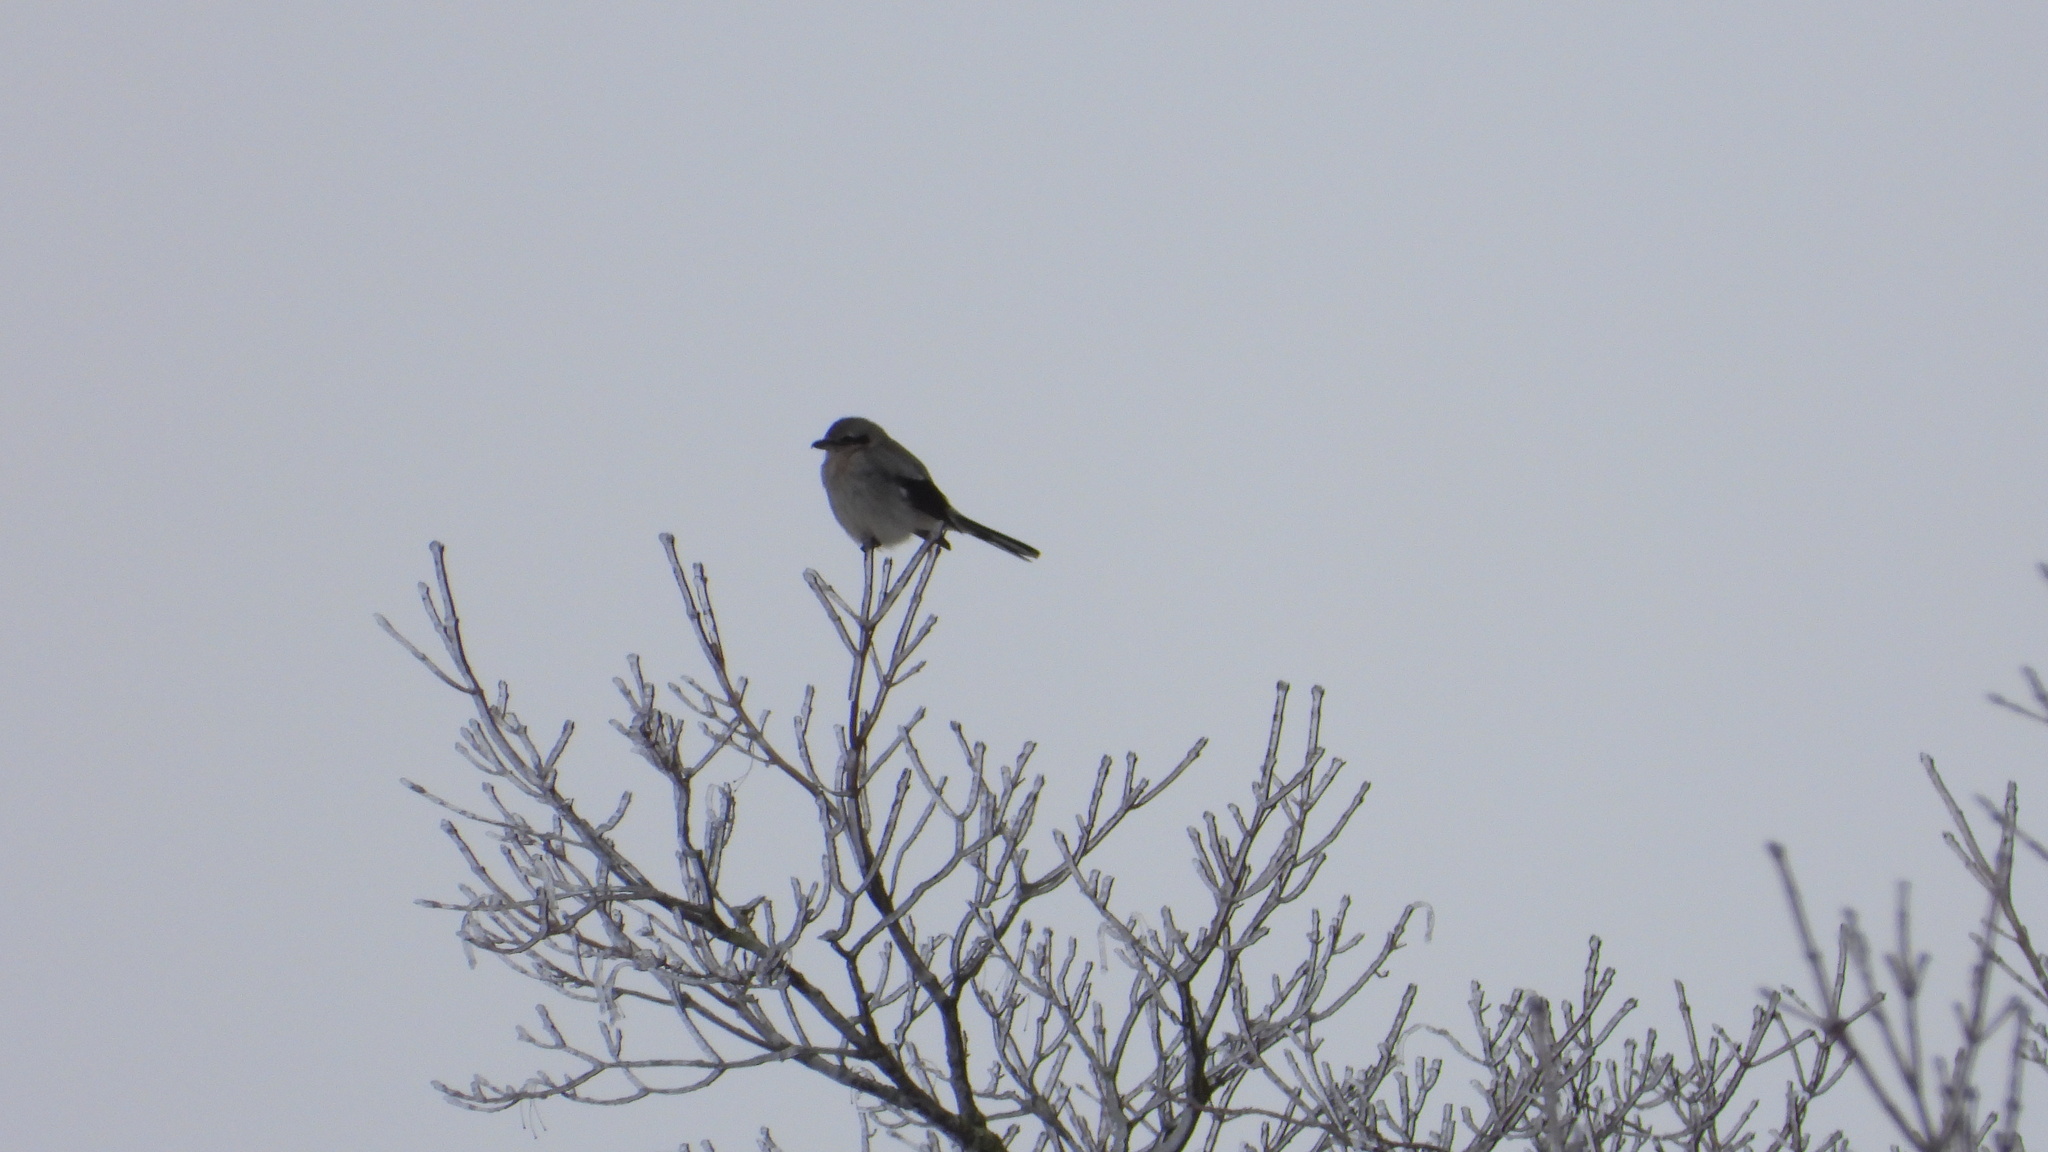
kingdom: Animalia
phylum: Chordata
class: Aves
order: Passeriformes
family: Laniidae
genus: Lanius
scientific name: Lanius borealis
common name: Northern shrike
